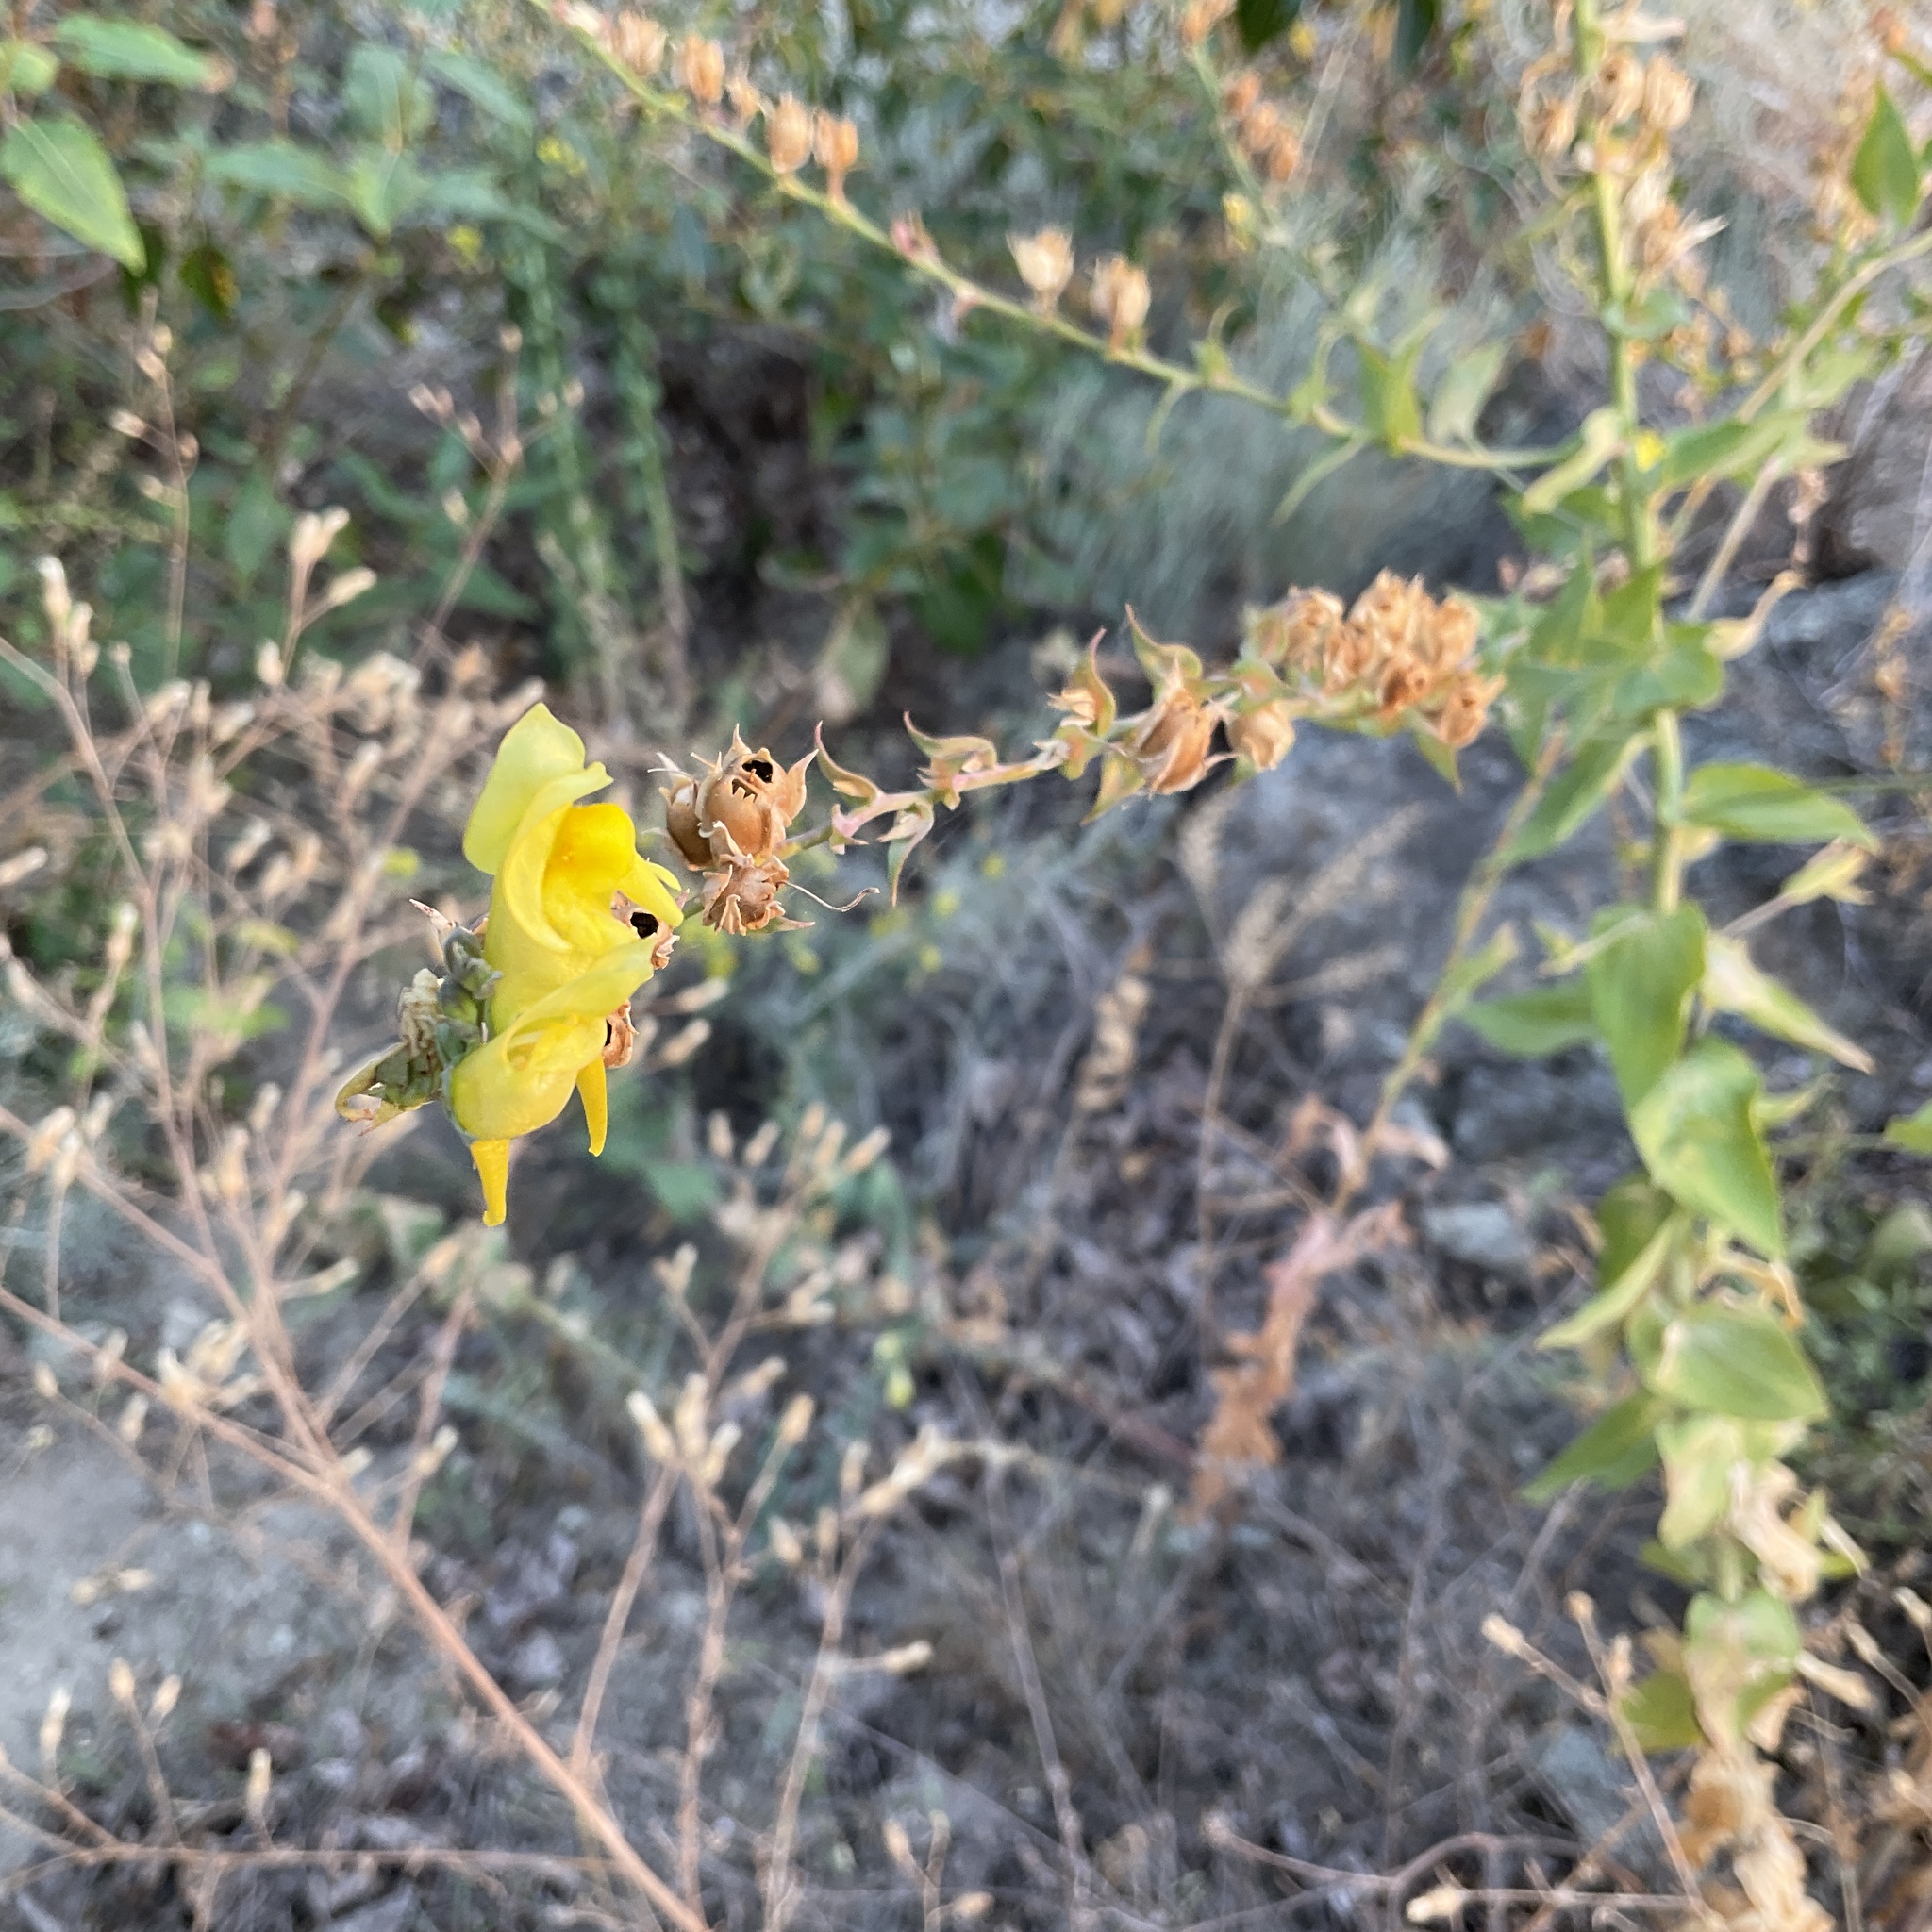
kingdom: Plantae
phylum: Tracheophyta
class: Magnoliopsida
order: Lamiales
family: Plantaginaceae
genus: Linaria
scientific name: Linaria dalmatica
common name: Dalmatian toadflax
